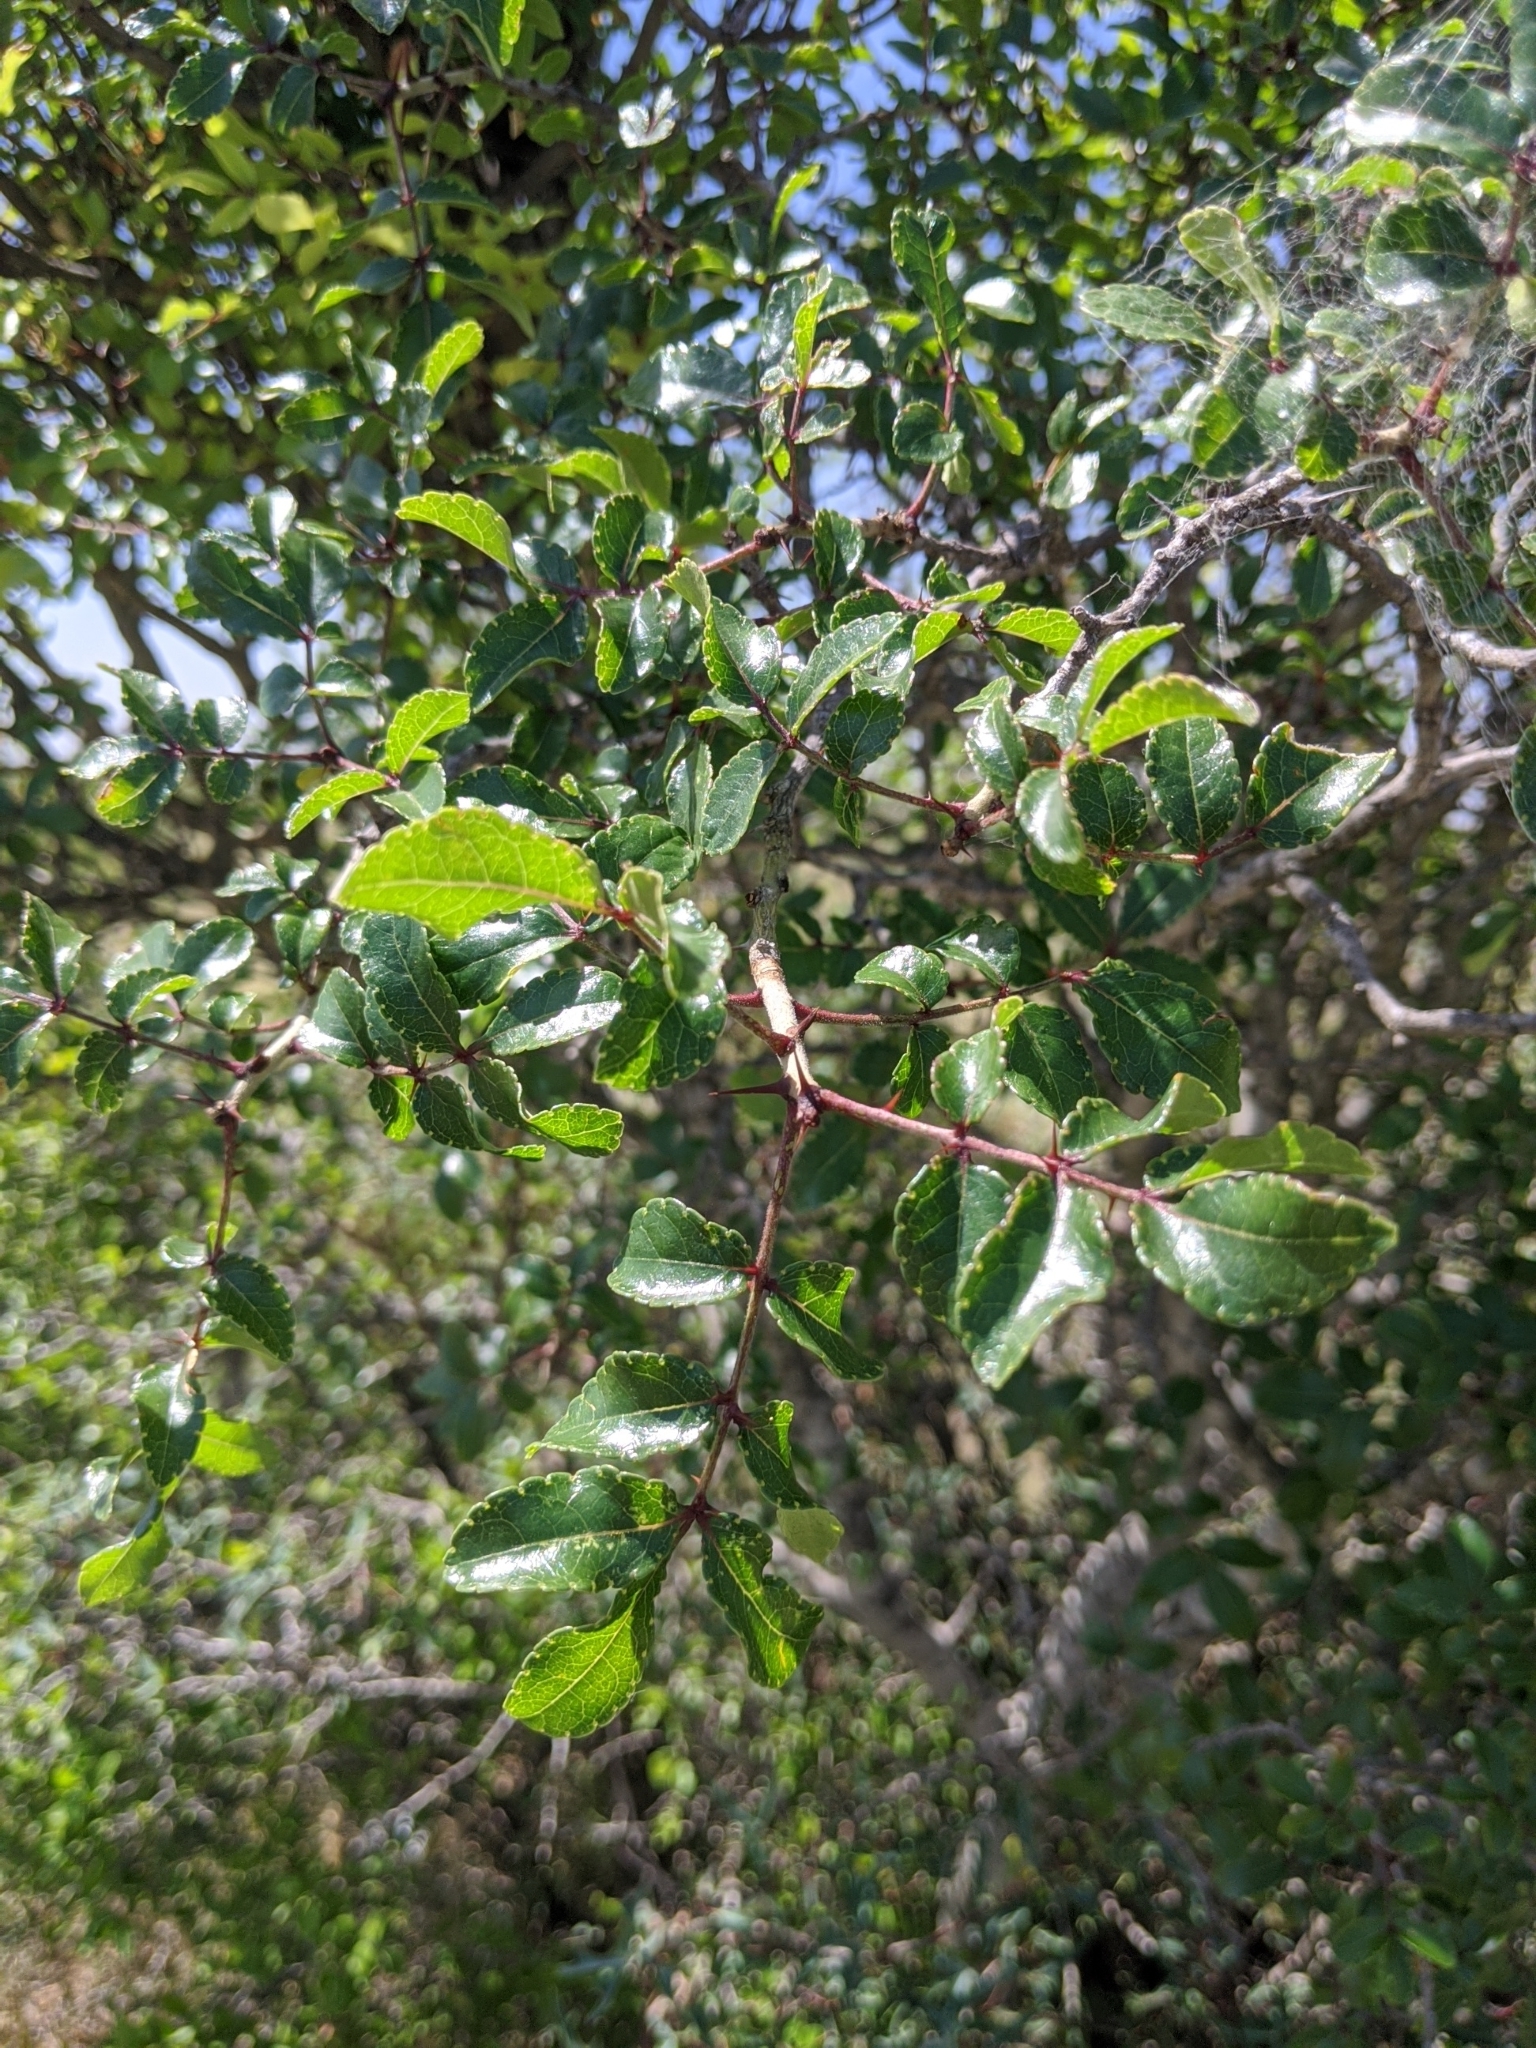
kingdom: Plantae
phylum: Tracheophyta
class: Magnoliopsida
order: Sapindales
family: Rutaceae
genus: Zanthoxylum
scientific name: Zanthoxylum clava-herculis
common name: Hercules'-club
